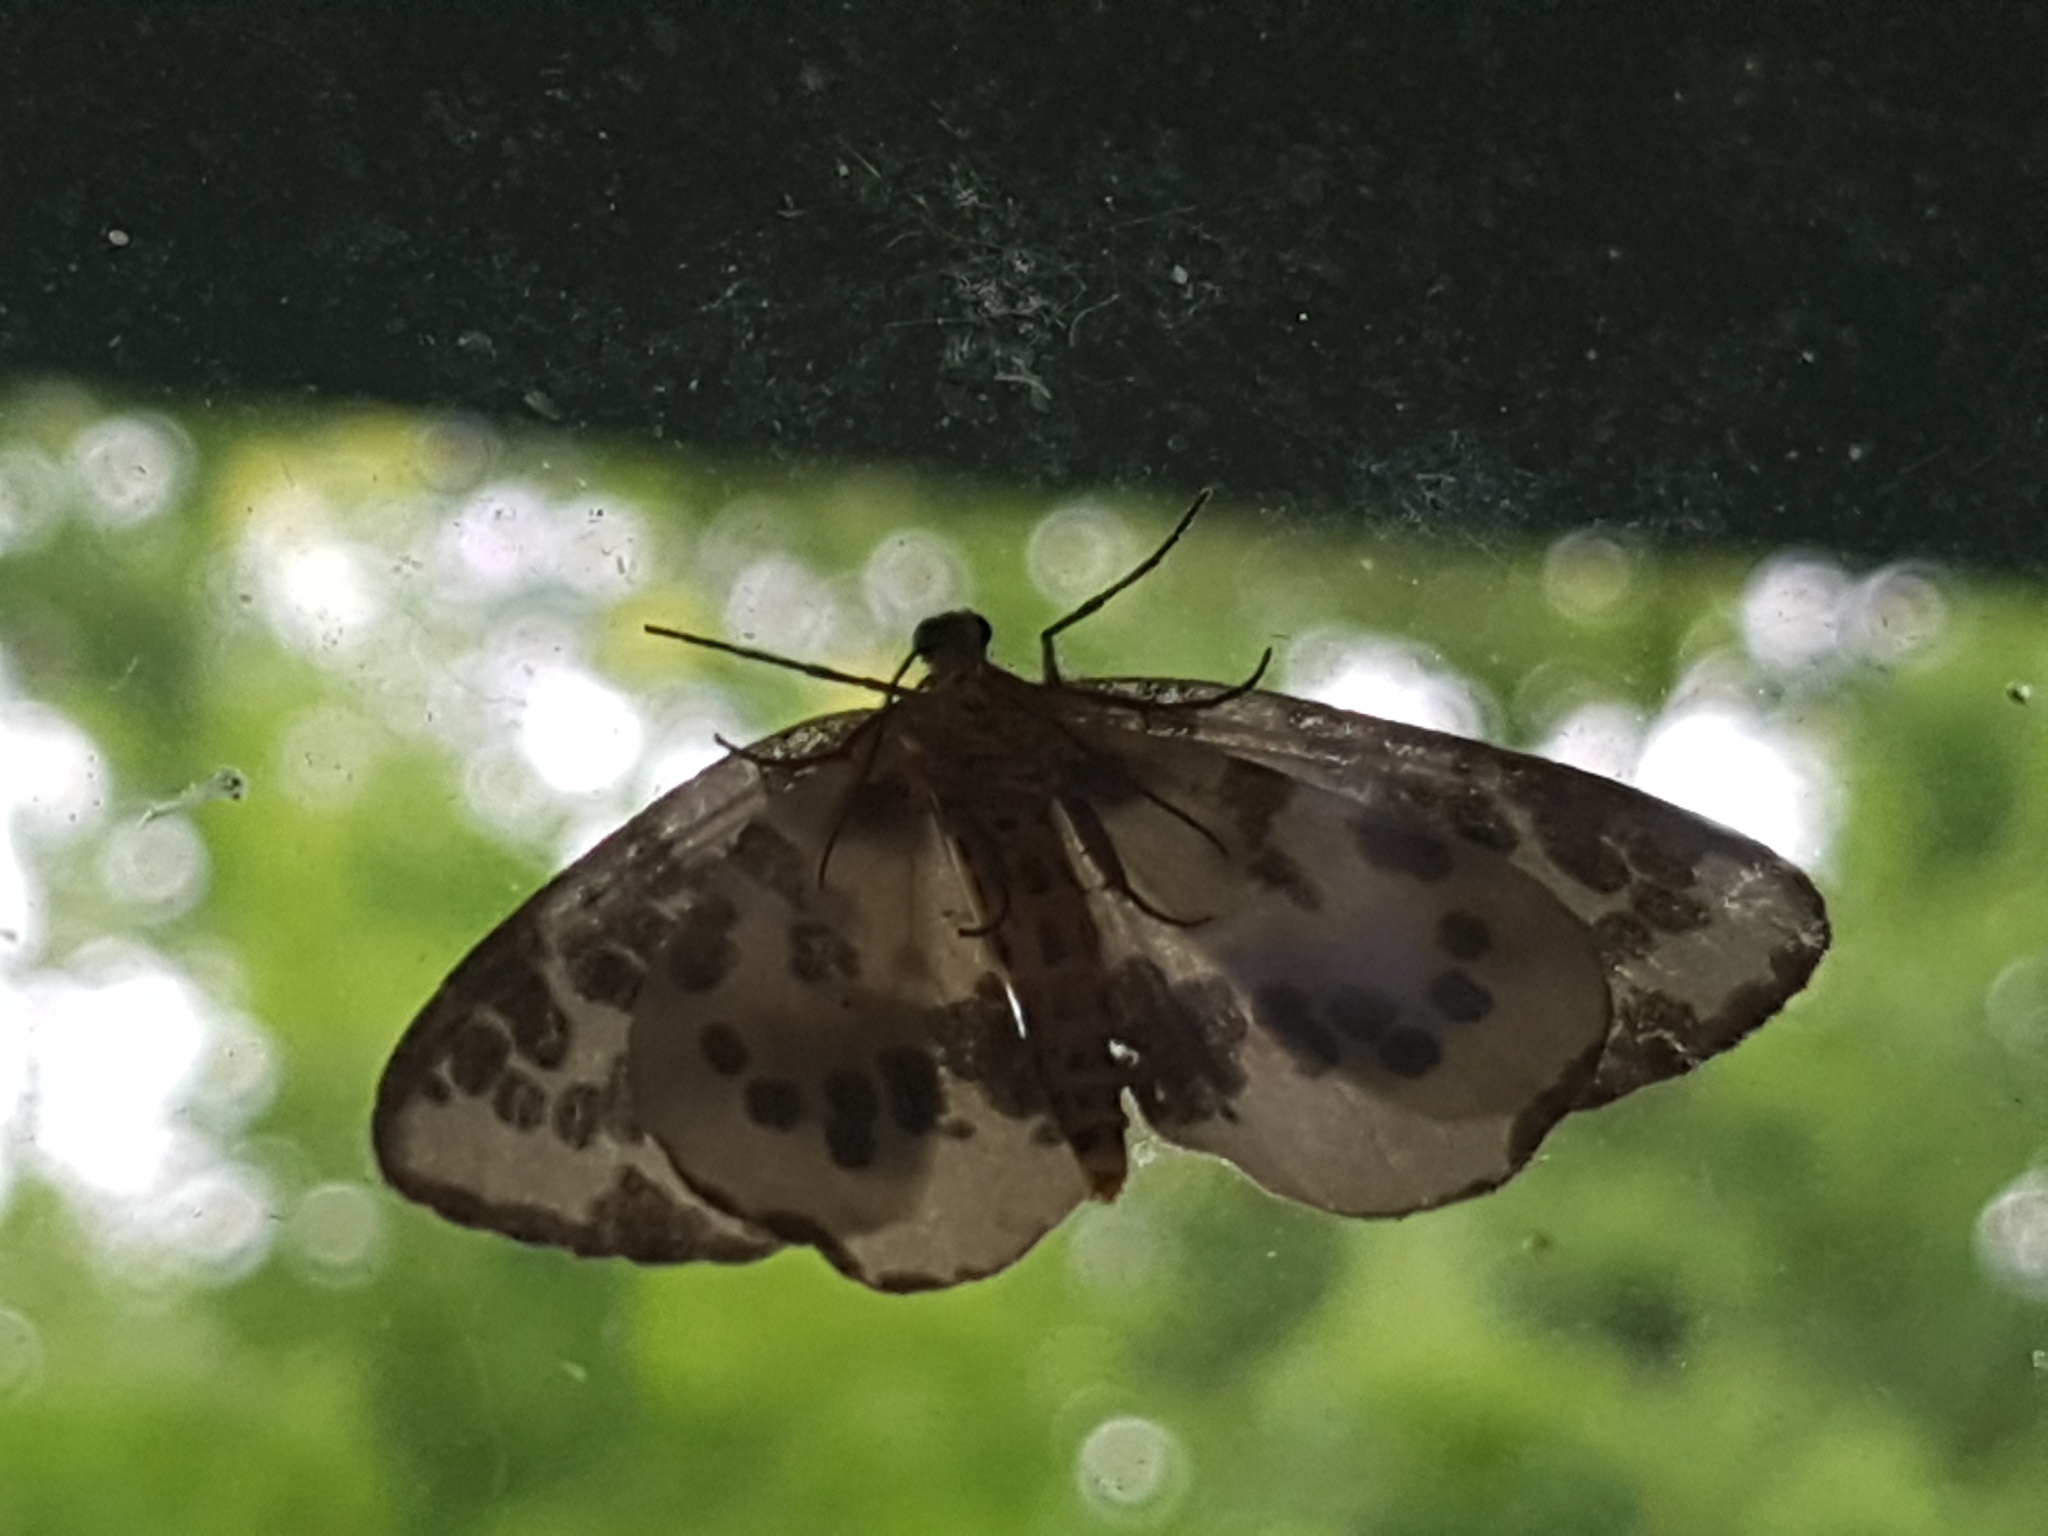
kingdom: Animalia
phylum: Arthropoda
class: Insecta
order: Lepidoptera
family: Geometridae
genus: Abraxas
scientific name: Abraxas sylvata
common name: Clouded magpie
